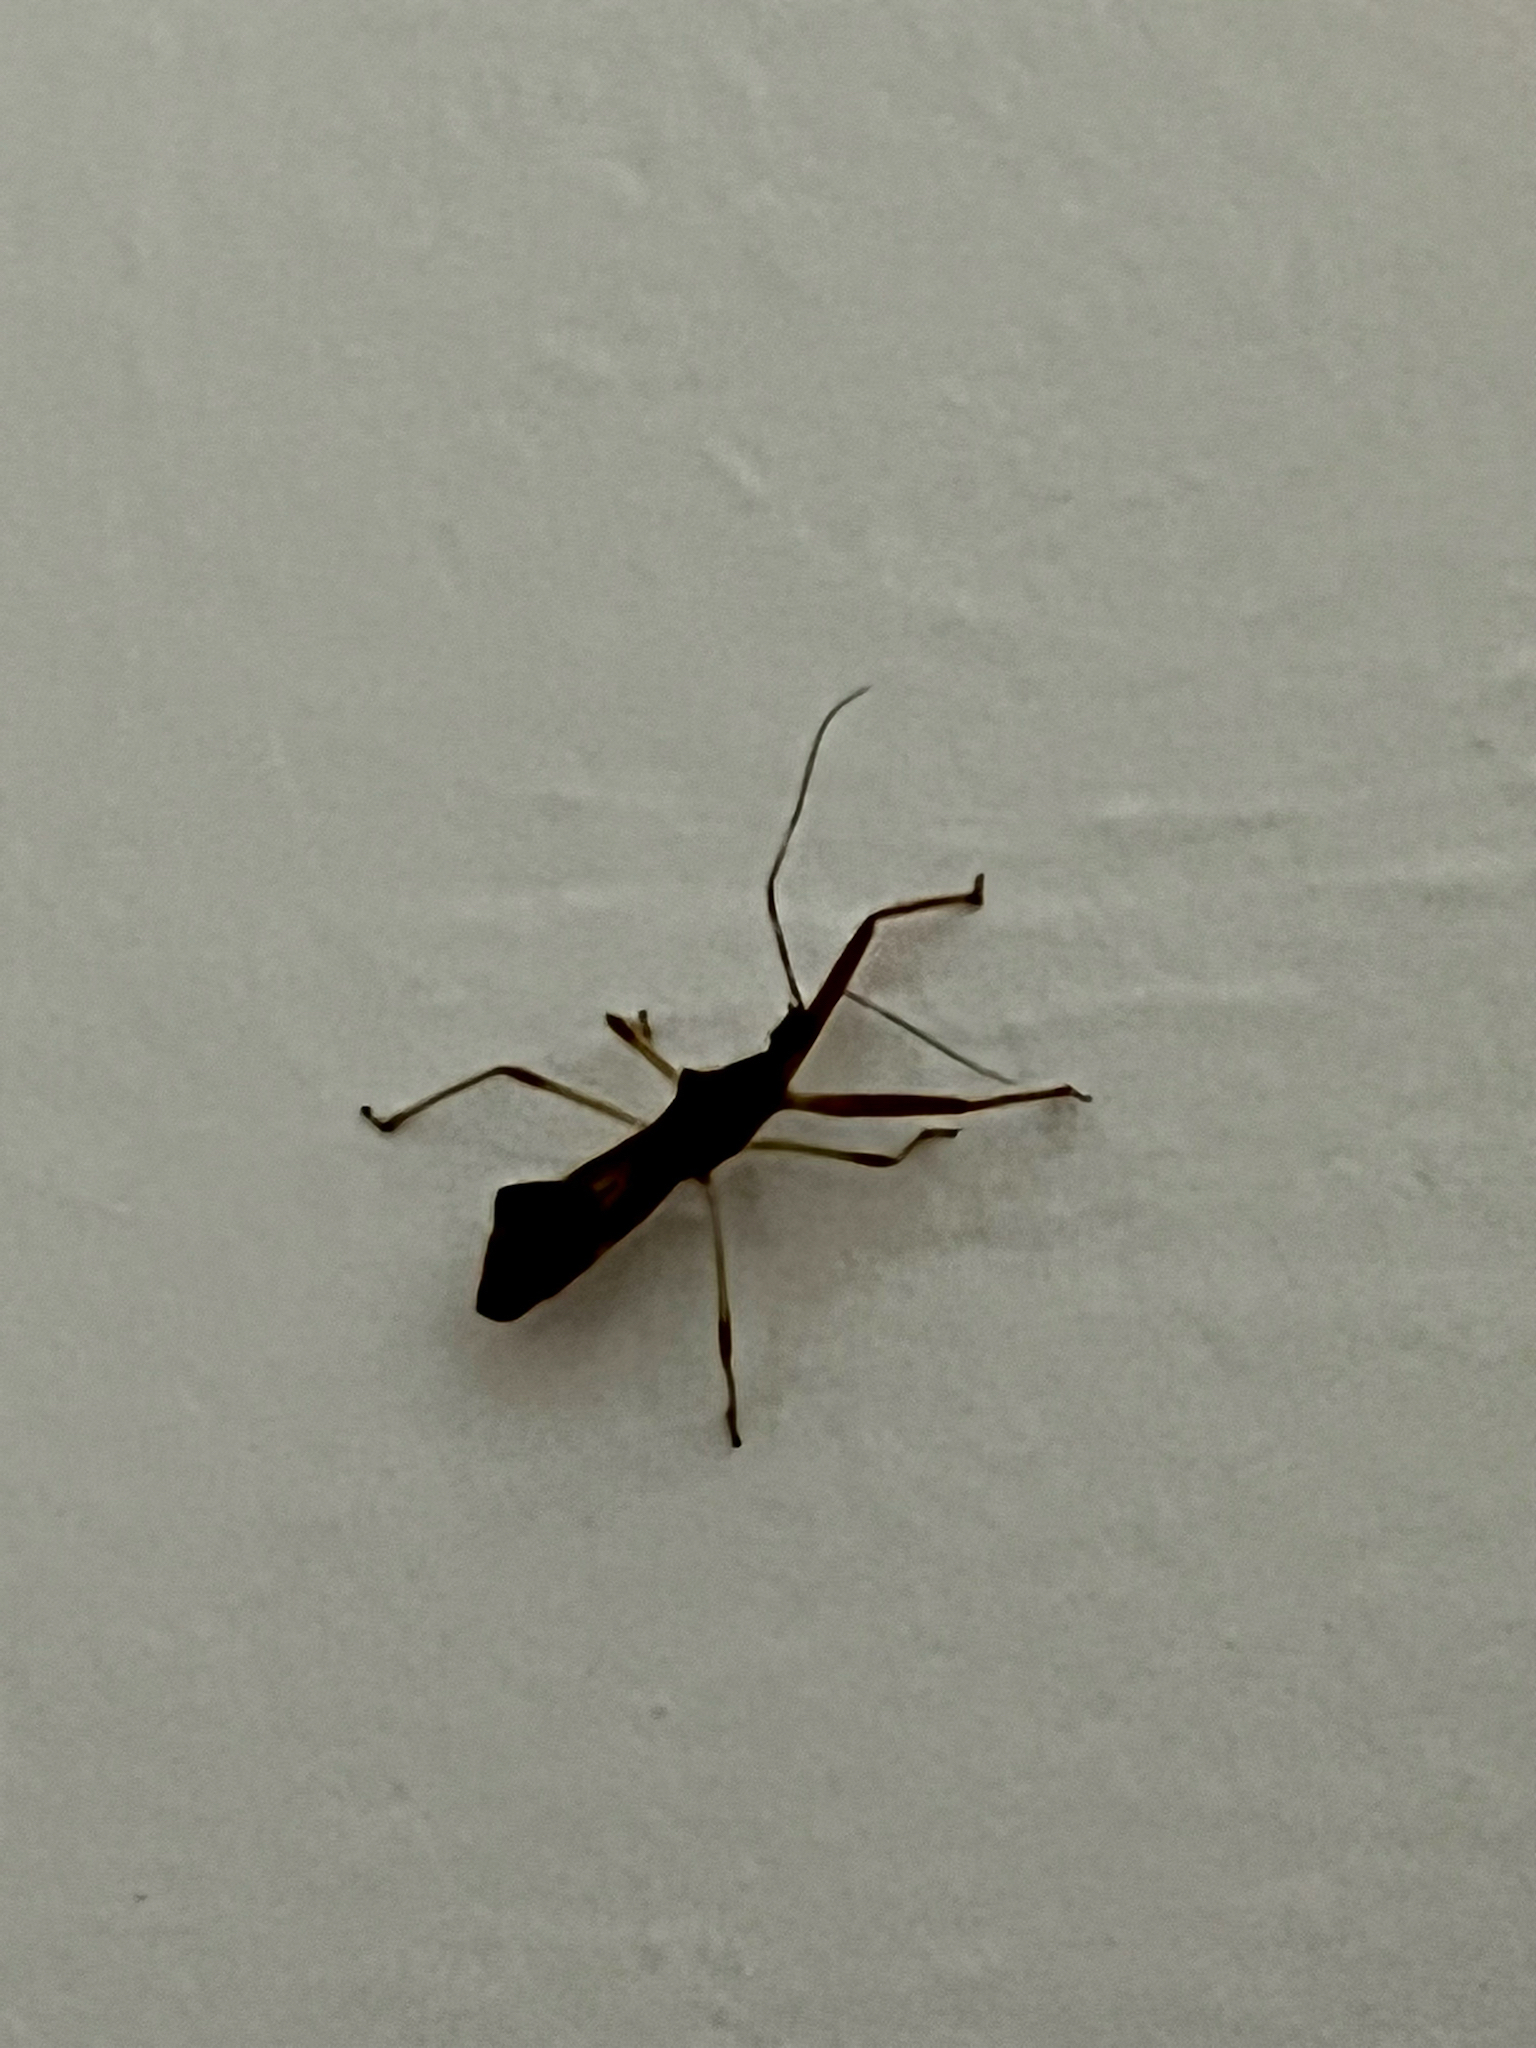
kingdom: Animalia
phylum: Arthropoda
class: Insecta
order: Hemiptera
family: Reduviidae
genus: Nagusta
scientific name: Nagusta goedelii
